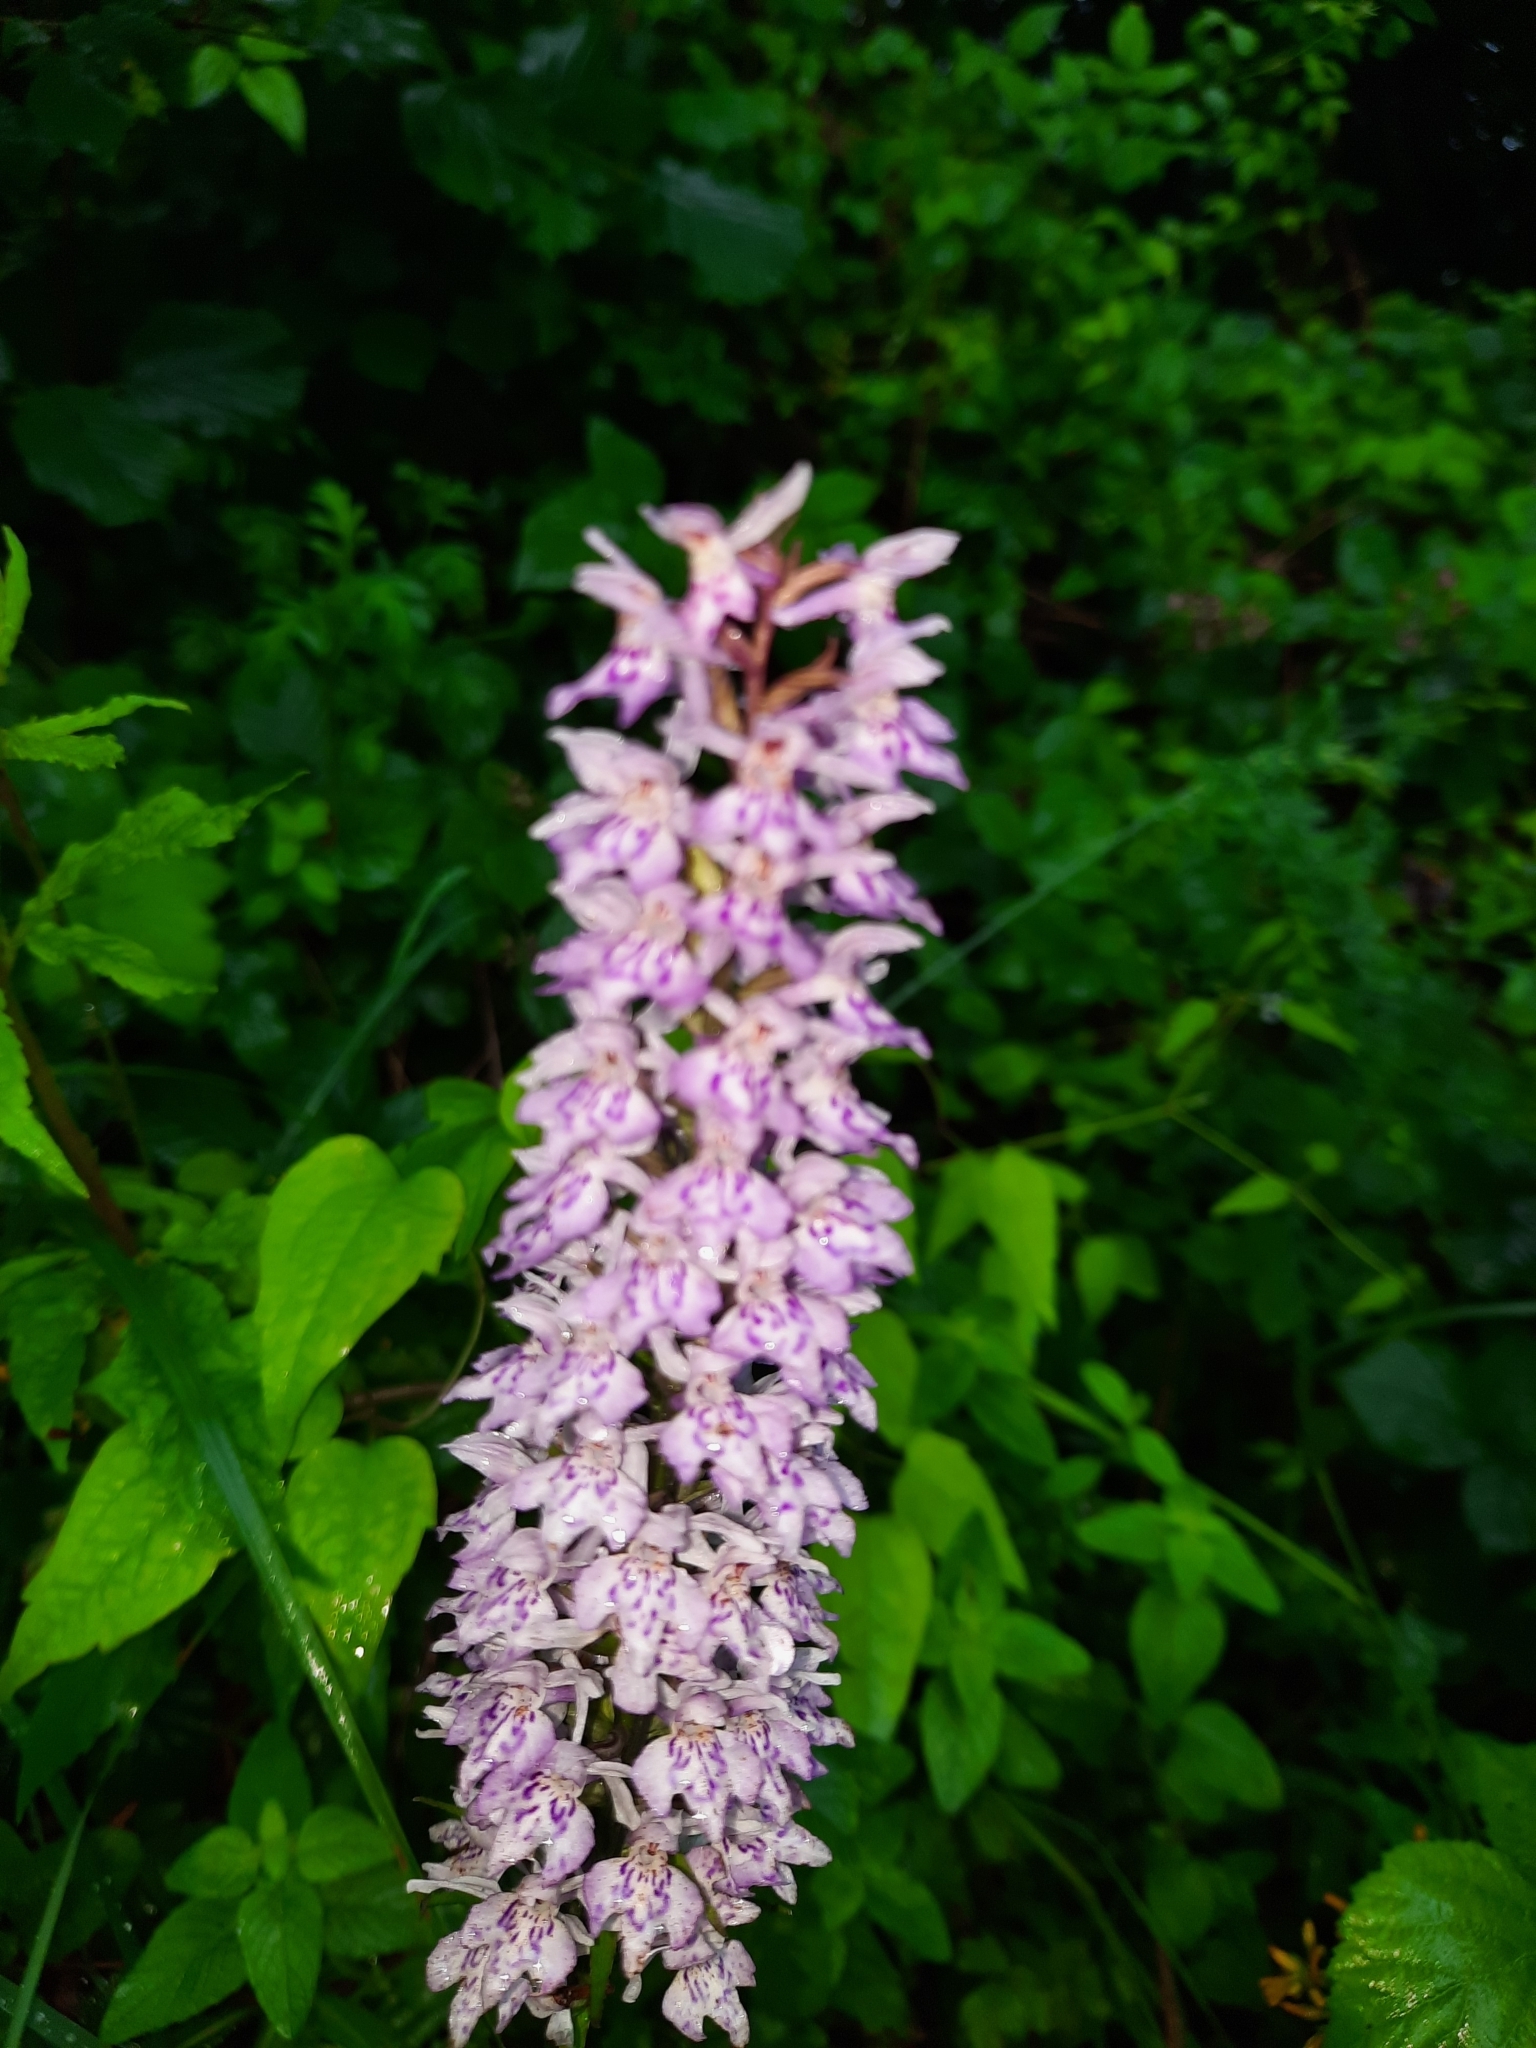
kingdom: Plantae
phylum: Tracheophyta
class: Liliopsida
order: Asparagales
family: Orchidaceae
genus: Dactylorhiza
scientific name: Dactylorhiza maculata
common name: Heath spotted-orchid
